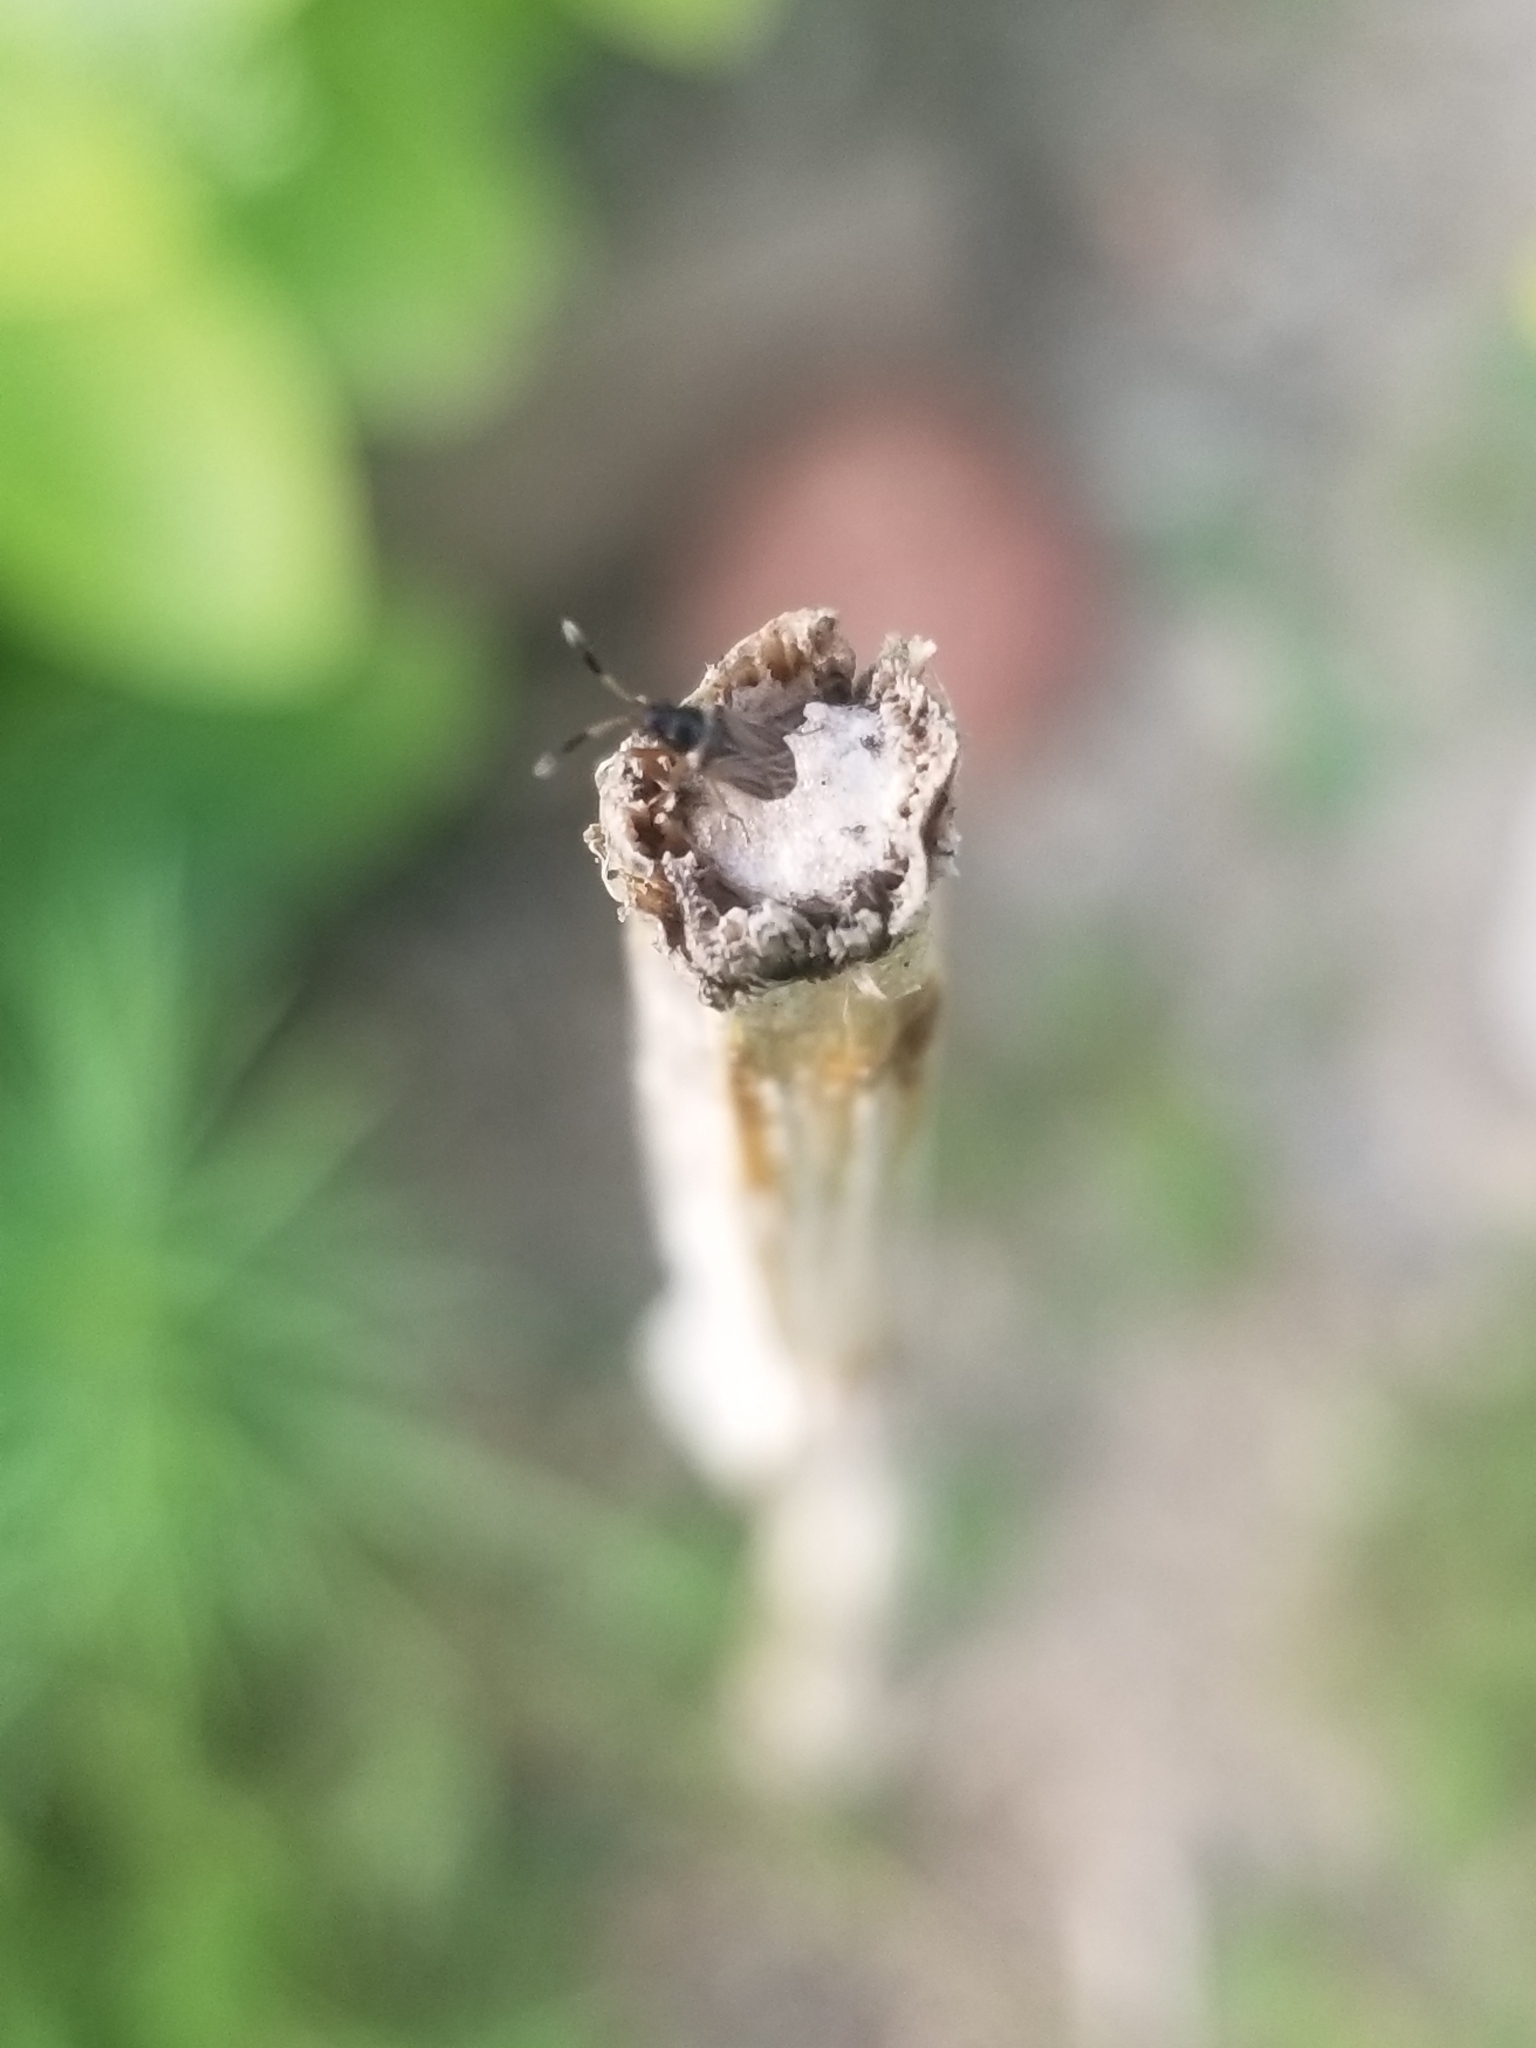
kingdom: Animalia
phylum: Arthropoda
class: Insecta
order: Hemiptera
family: Rhyparochromidae
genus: Ptochiomera
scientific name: Ptochiomera nodosa
